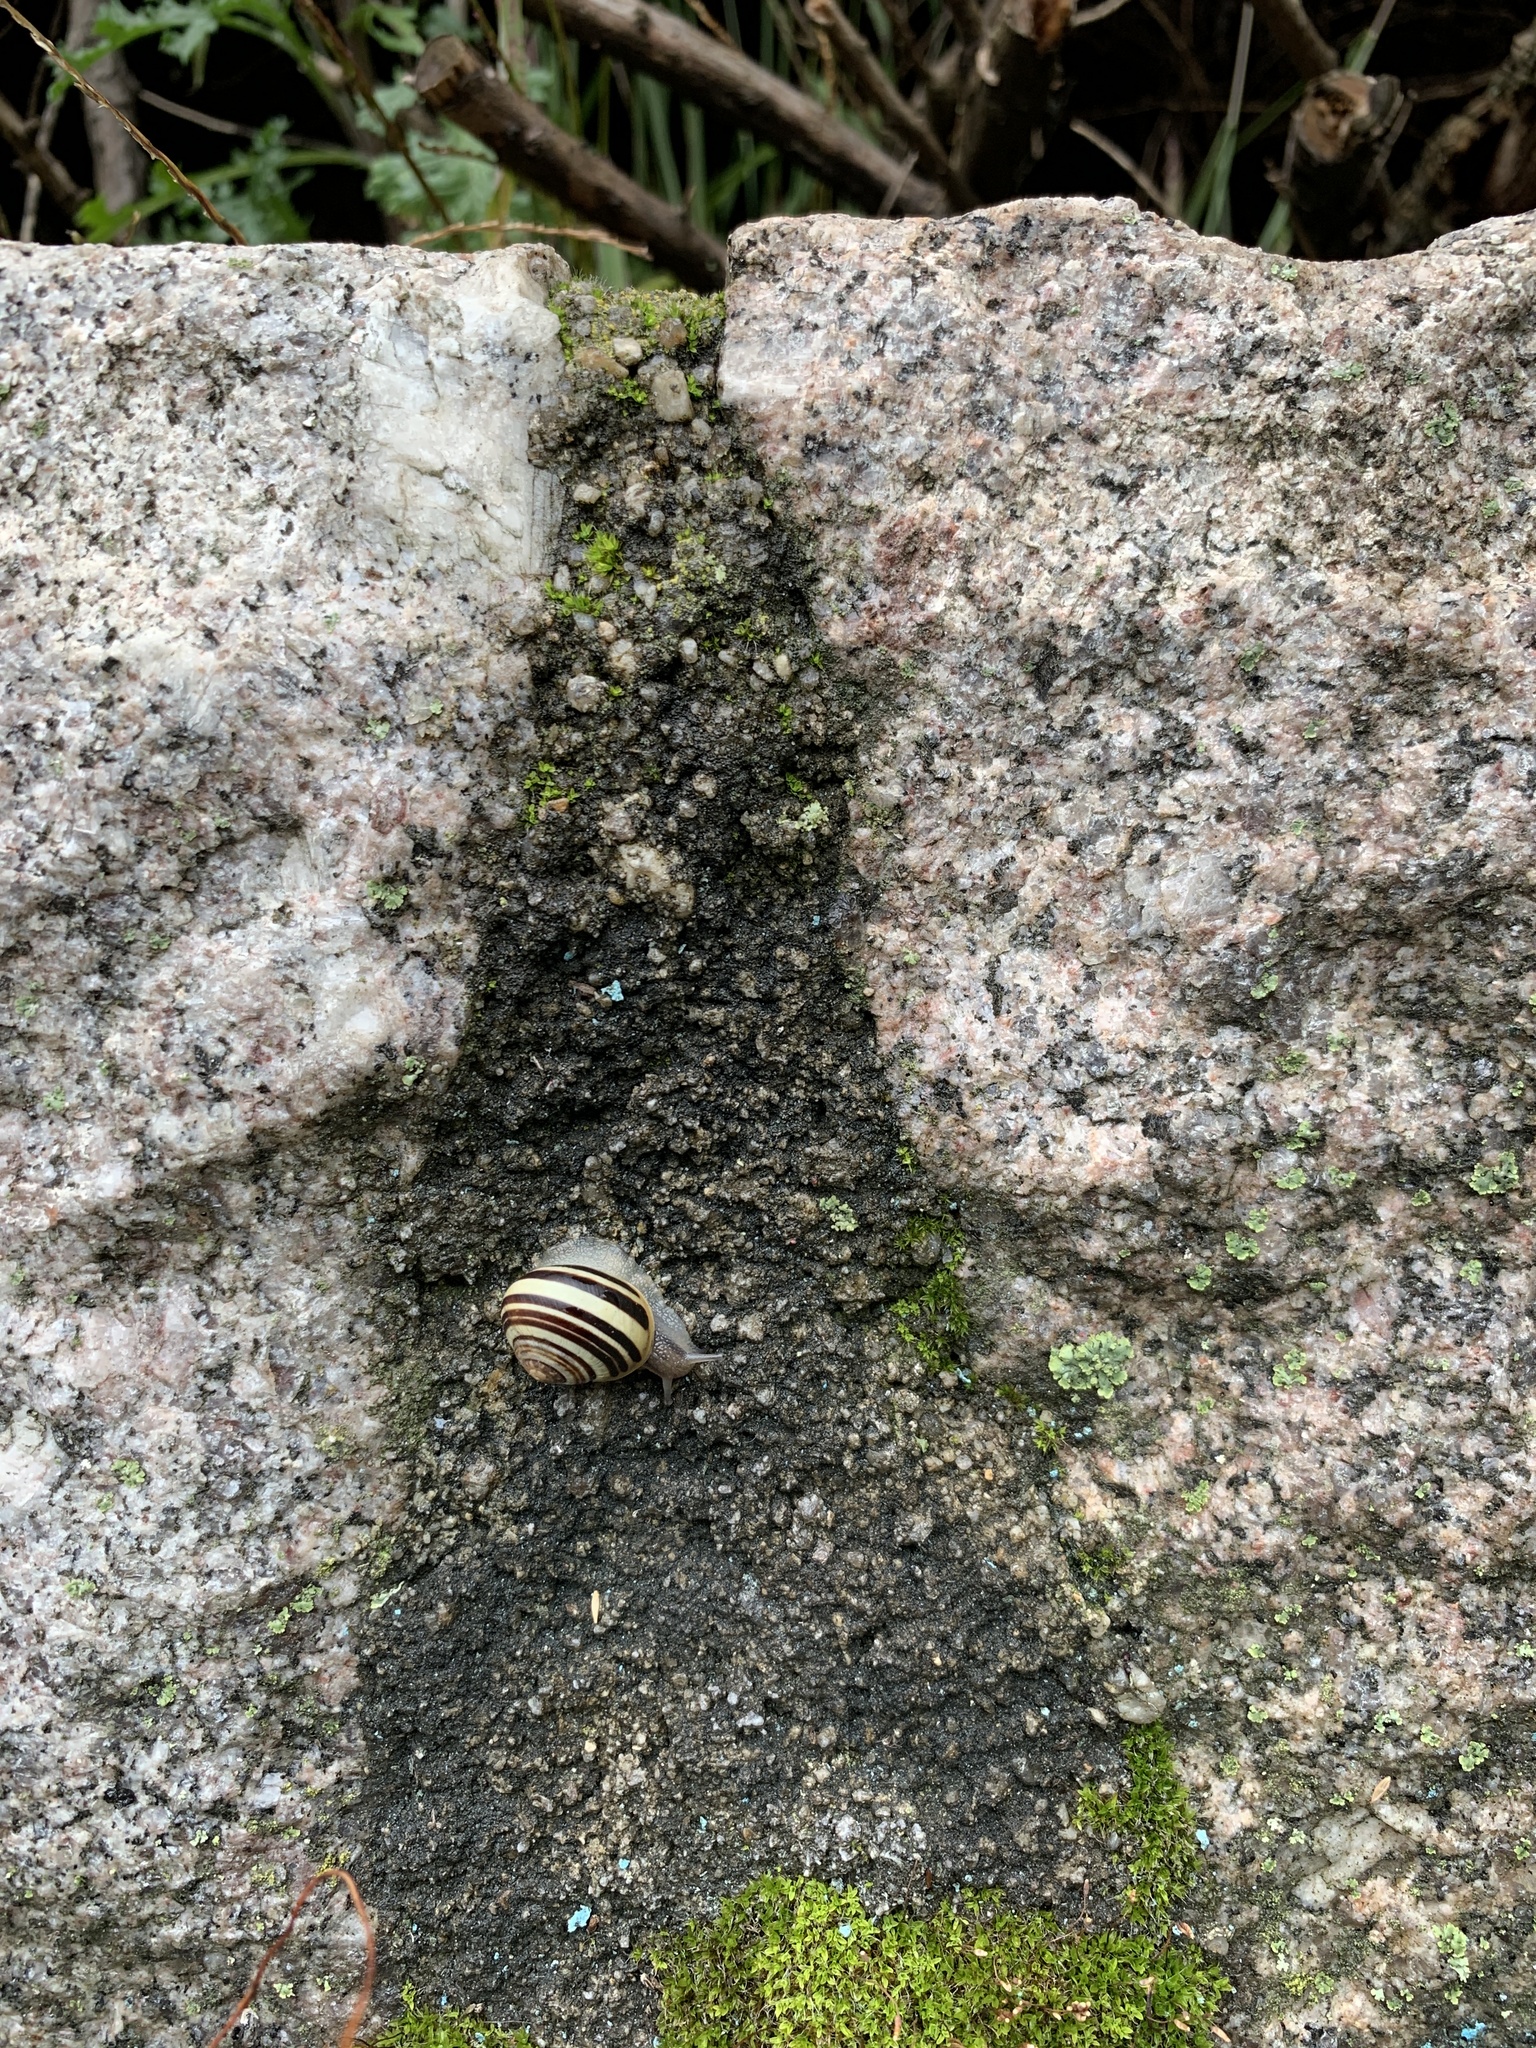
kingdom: Animalia
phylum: Mollusca
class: Gastropoda
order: Stylommatophora
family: Helicidae
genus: Cepaea
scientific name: Cepaea
